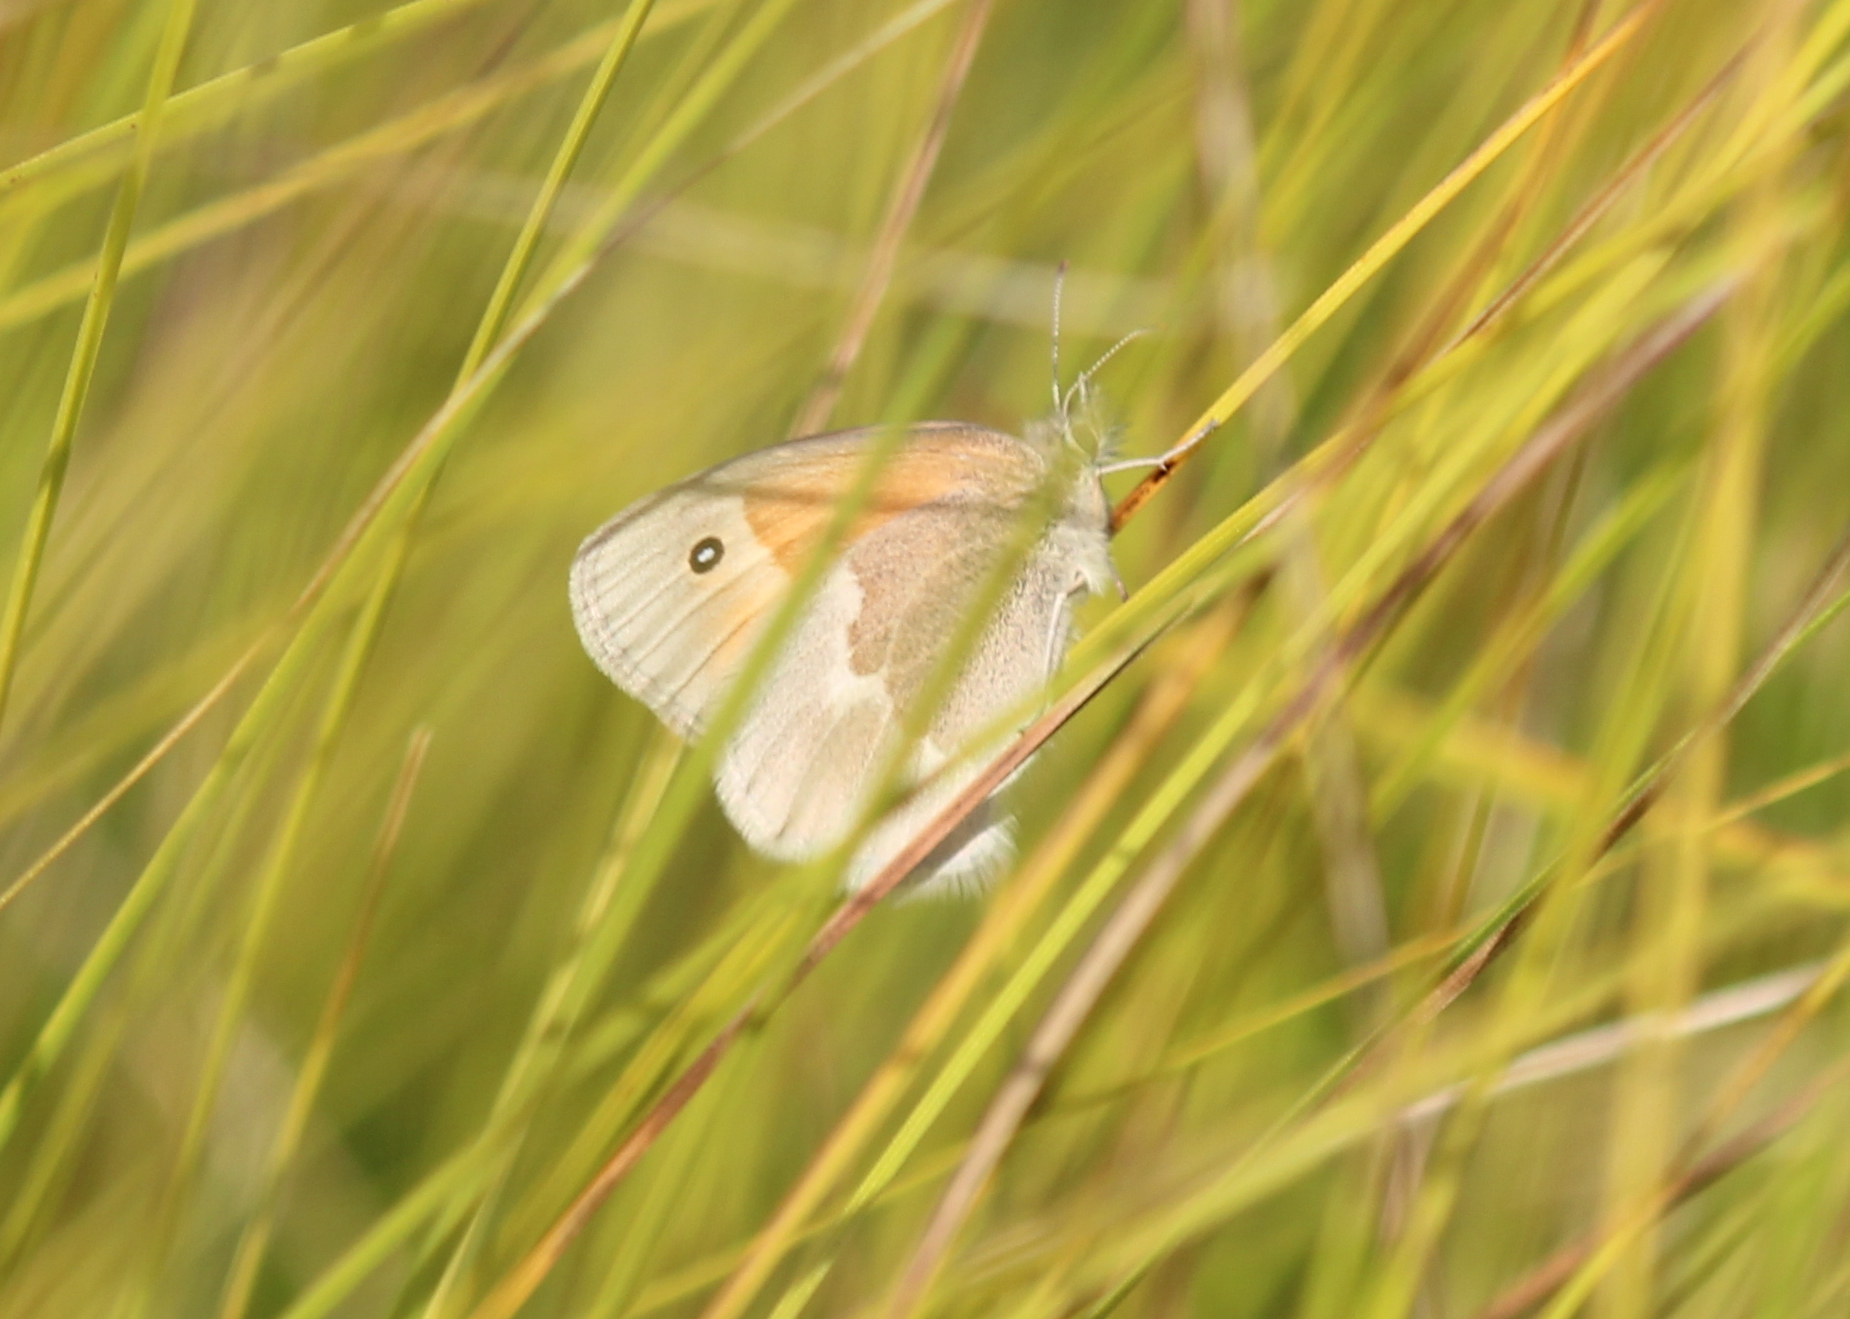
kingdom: Animalia
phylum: Arthropoda
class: Insecta
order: Lepidoptera
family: Nymphalidae
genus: Coenonympha
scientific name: Coenonympha california
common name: Common ringlet
